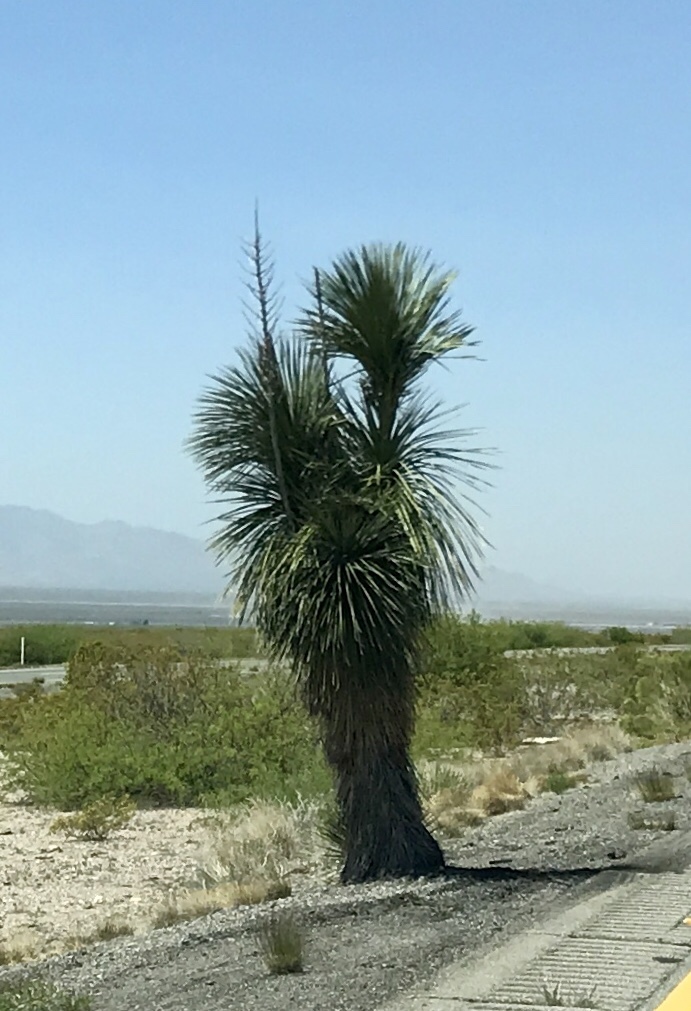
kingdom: Plantae
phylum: Tracheophyta
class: Liliopsida
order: Asparagales
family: Asparagaceae
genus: Yucca
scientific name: Yucca elata
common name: Palmella
